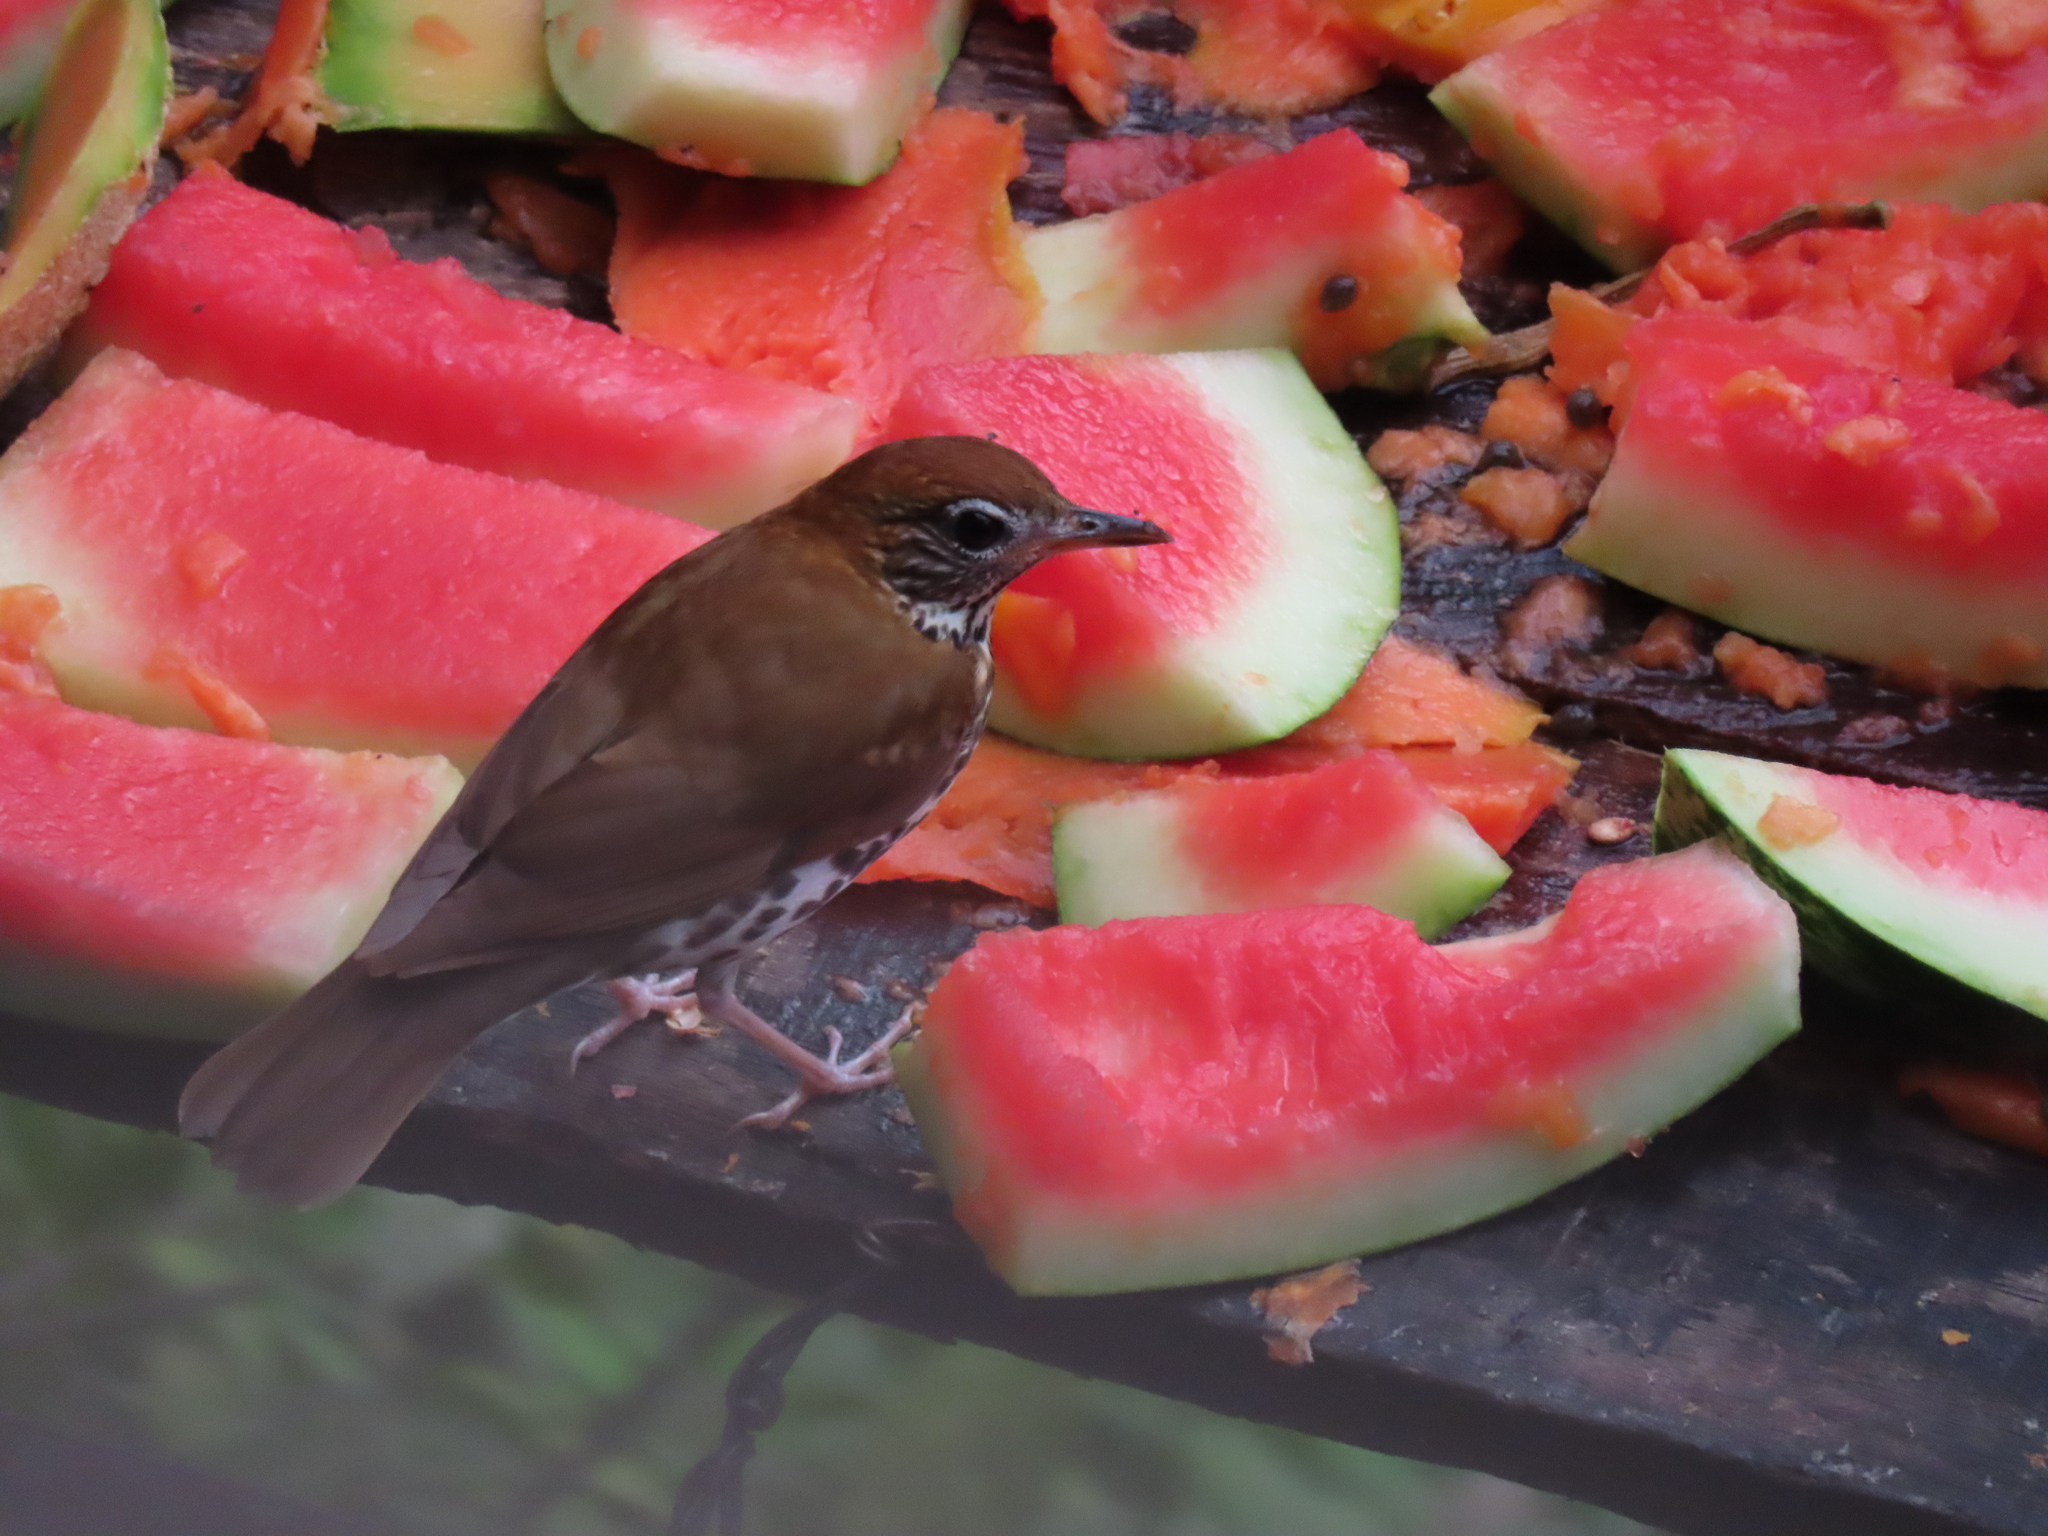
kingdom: Animalia
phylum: Chordata
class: Aves
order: Passeriformes
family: Turdidae
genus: Hylocichla
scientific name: Hylocichla mustelina
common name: Wood thrush
